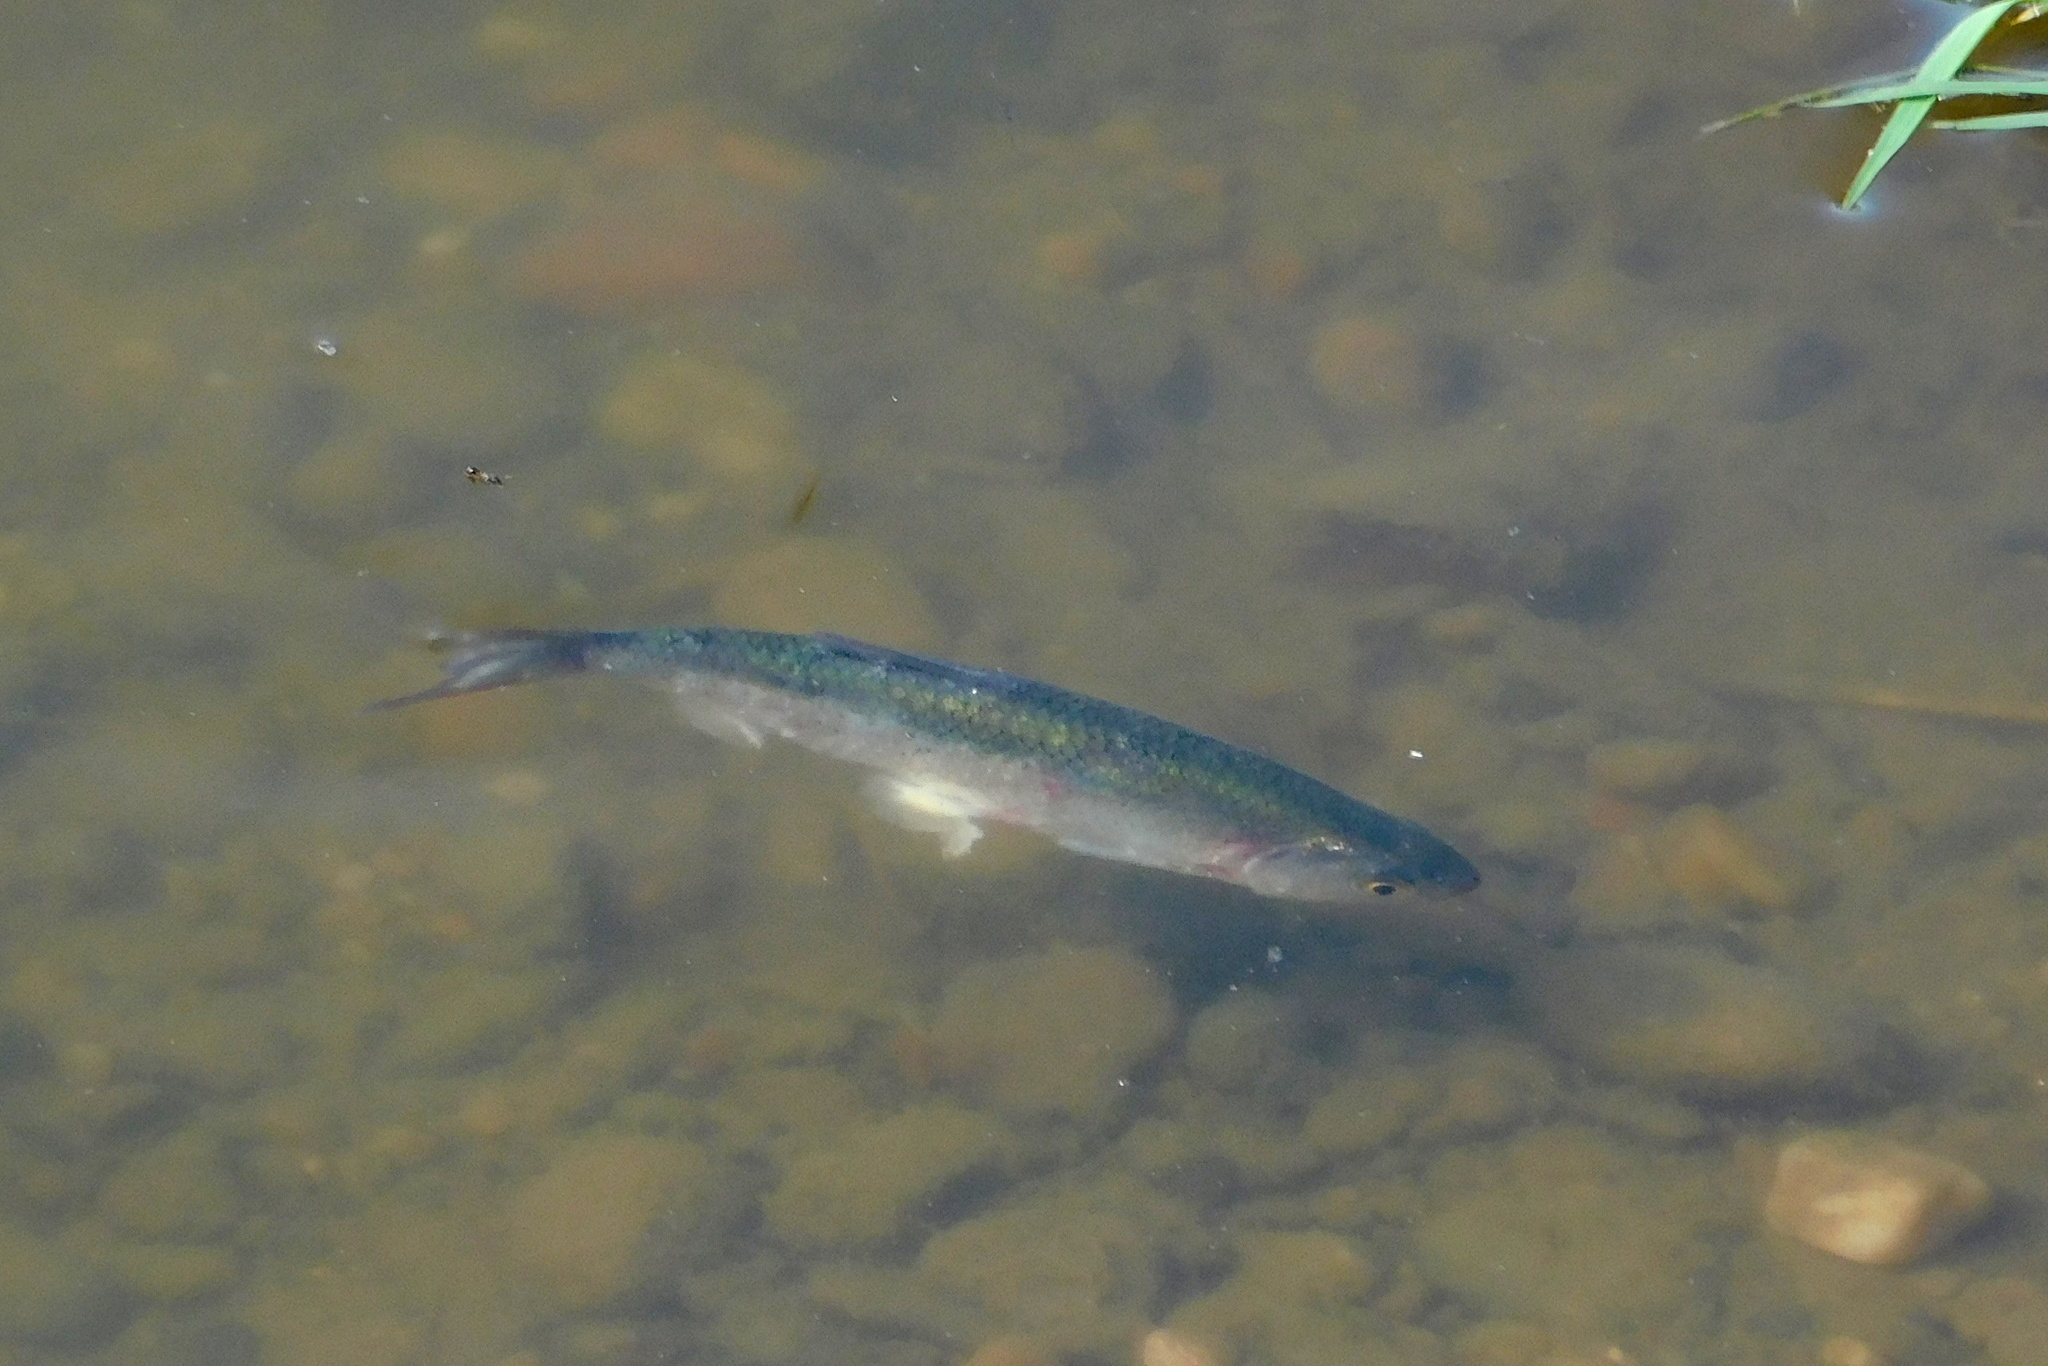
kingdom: Animalia
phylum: Chordata
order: Cypriniformes
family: Cyprinidae
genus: Alburnus
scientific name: Alburnus alburnus
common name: Bleak
